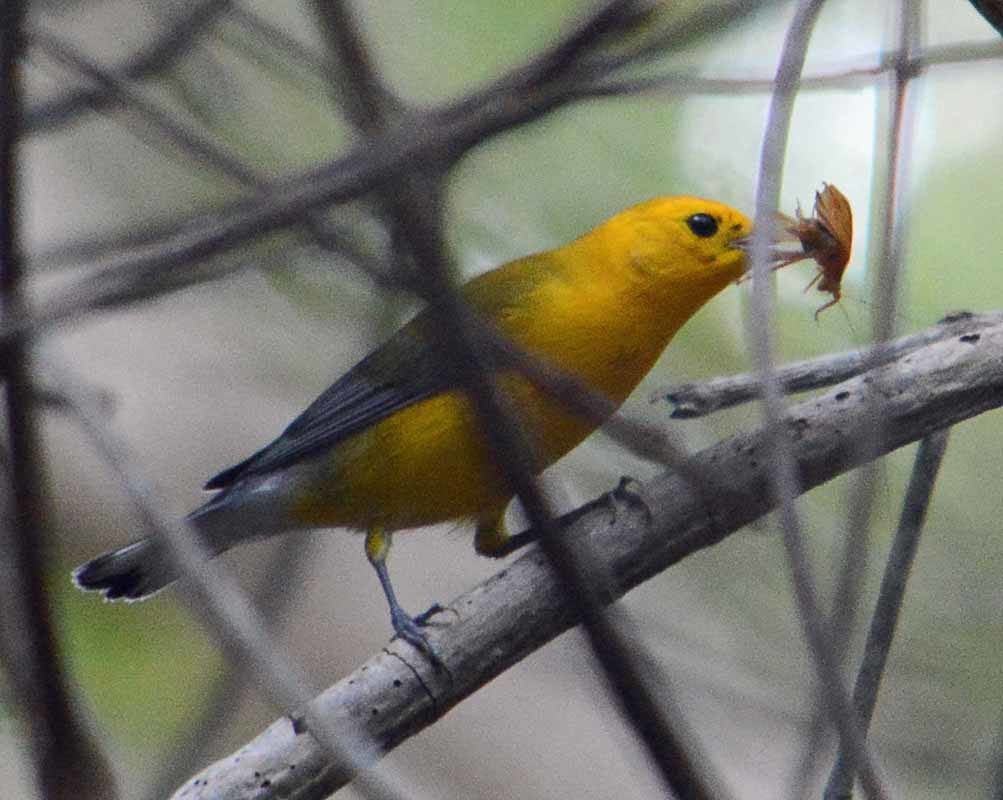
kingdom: Animalia
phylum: Chordata
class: Aves
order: Passeriformes
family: Parulidae
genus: Protonotaria
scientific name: Protonotaria citrea
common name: Prothonotary warbler
